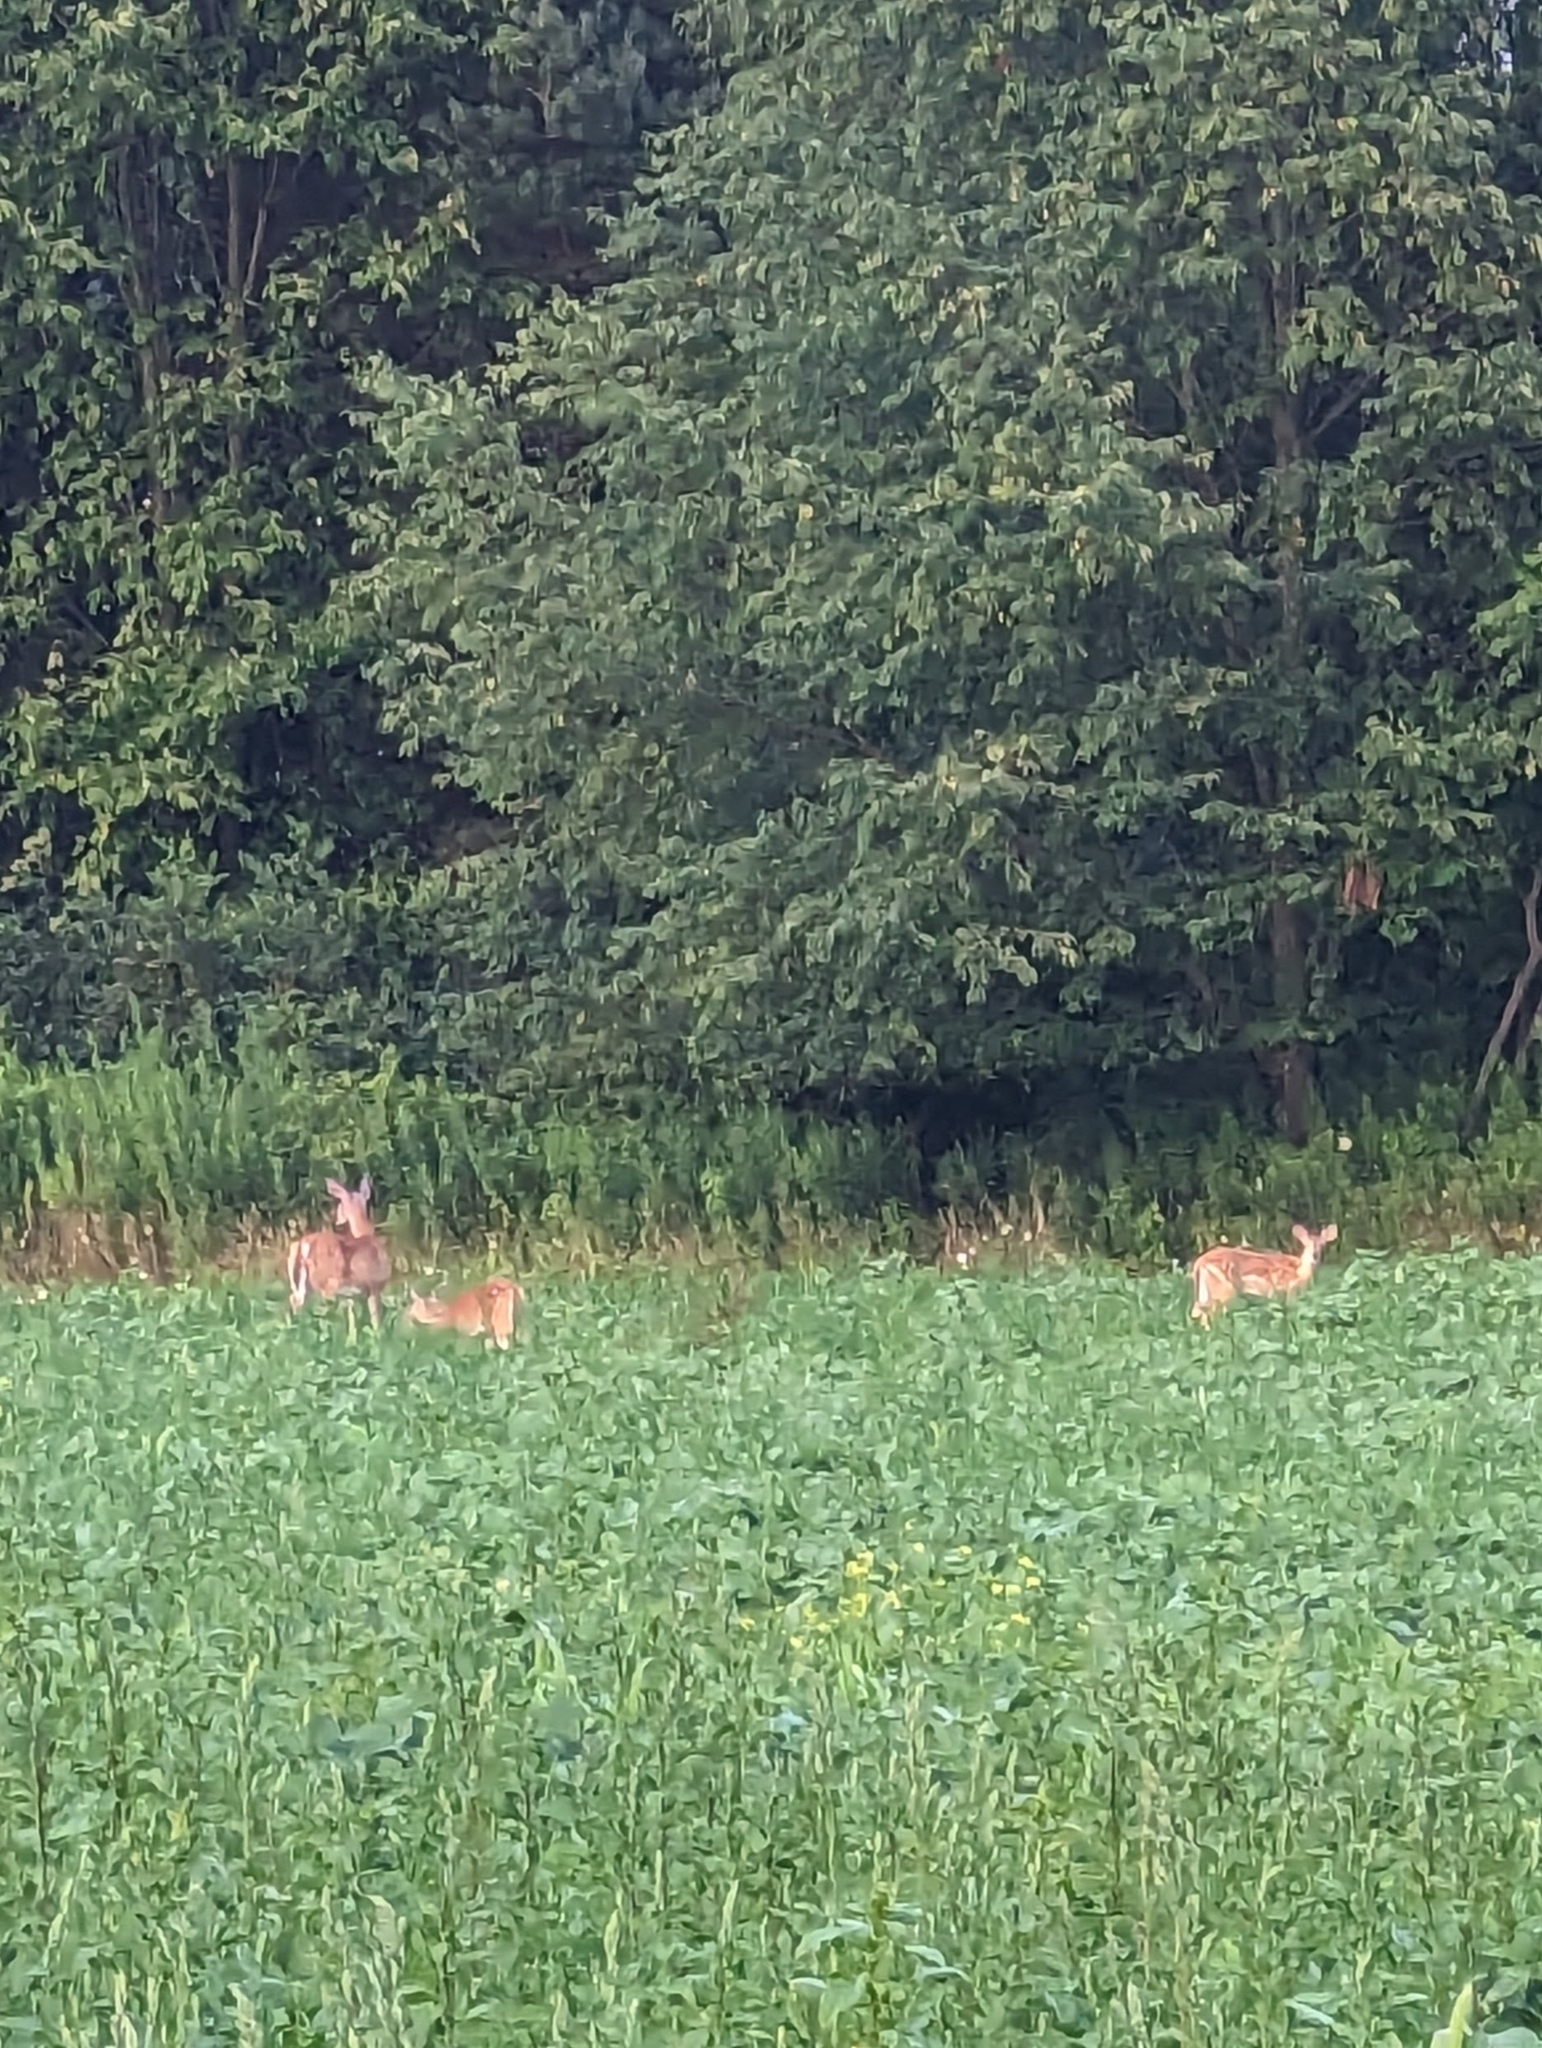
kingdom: Animalia
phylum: Chordata
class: Mammalia
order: Artiodactyla
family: Cervidae
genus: Odocoileus
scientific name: Odocoileus virginianus
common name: White-tailed deer
